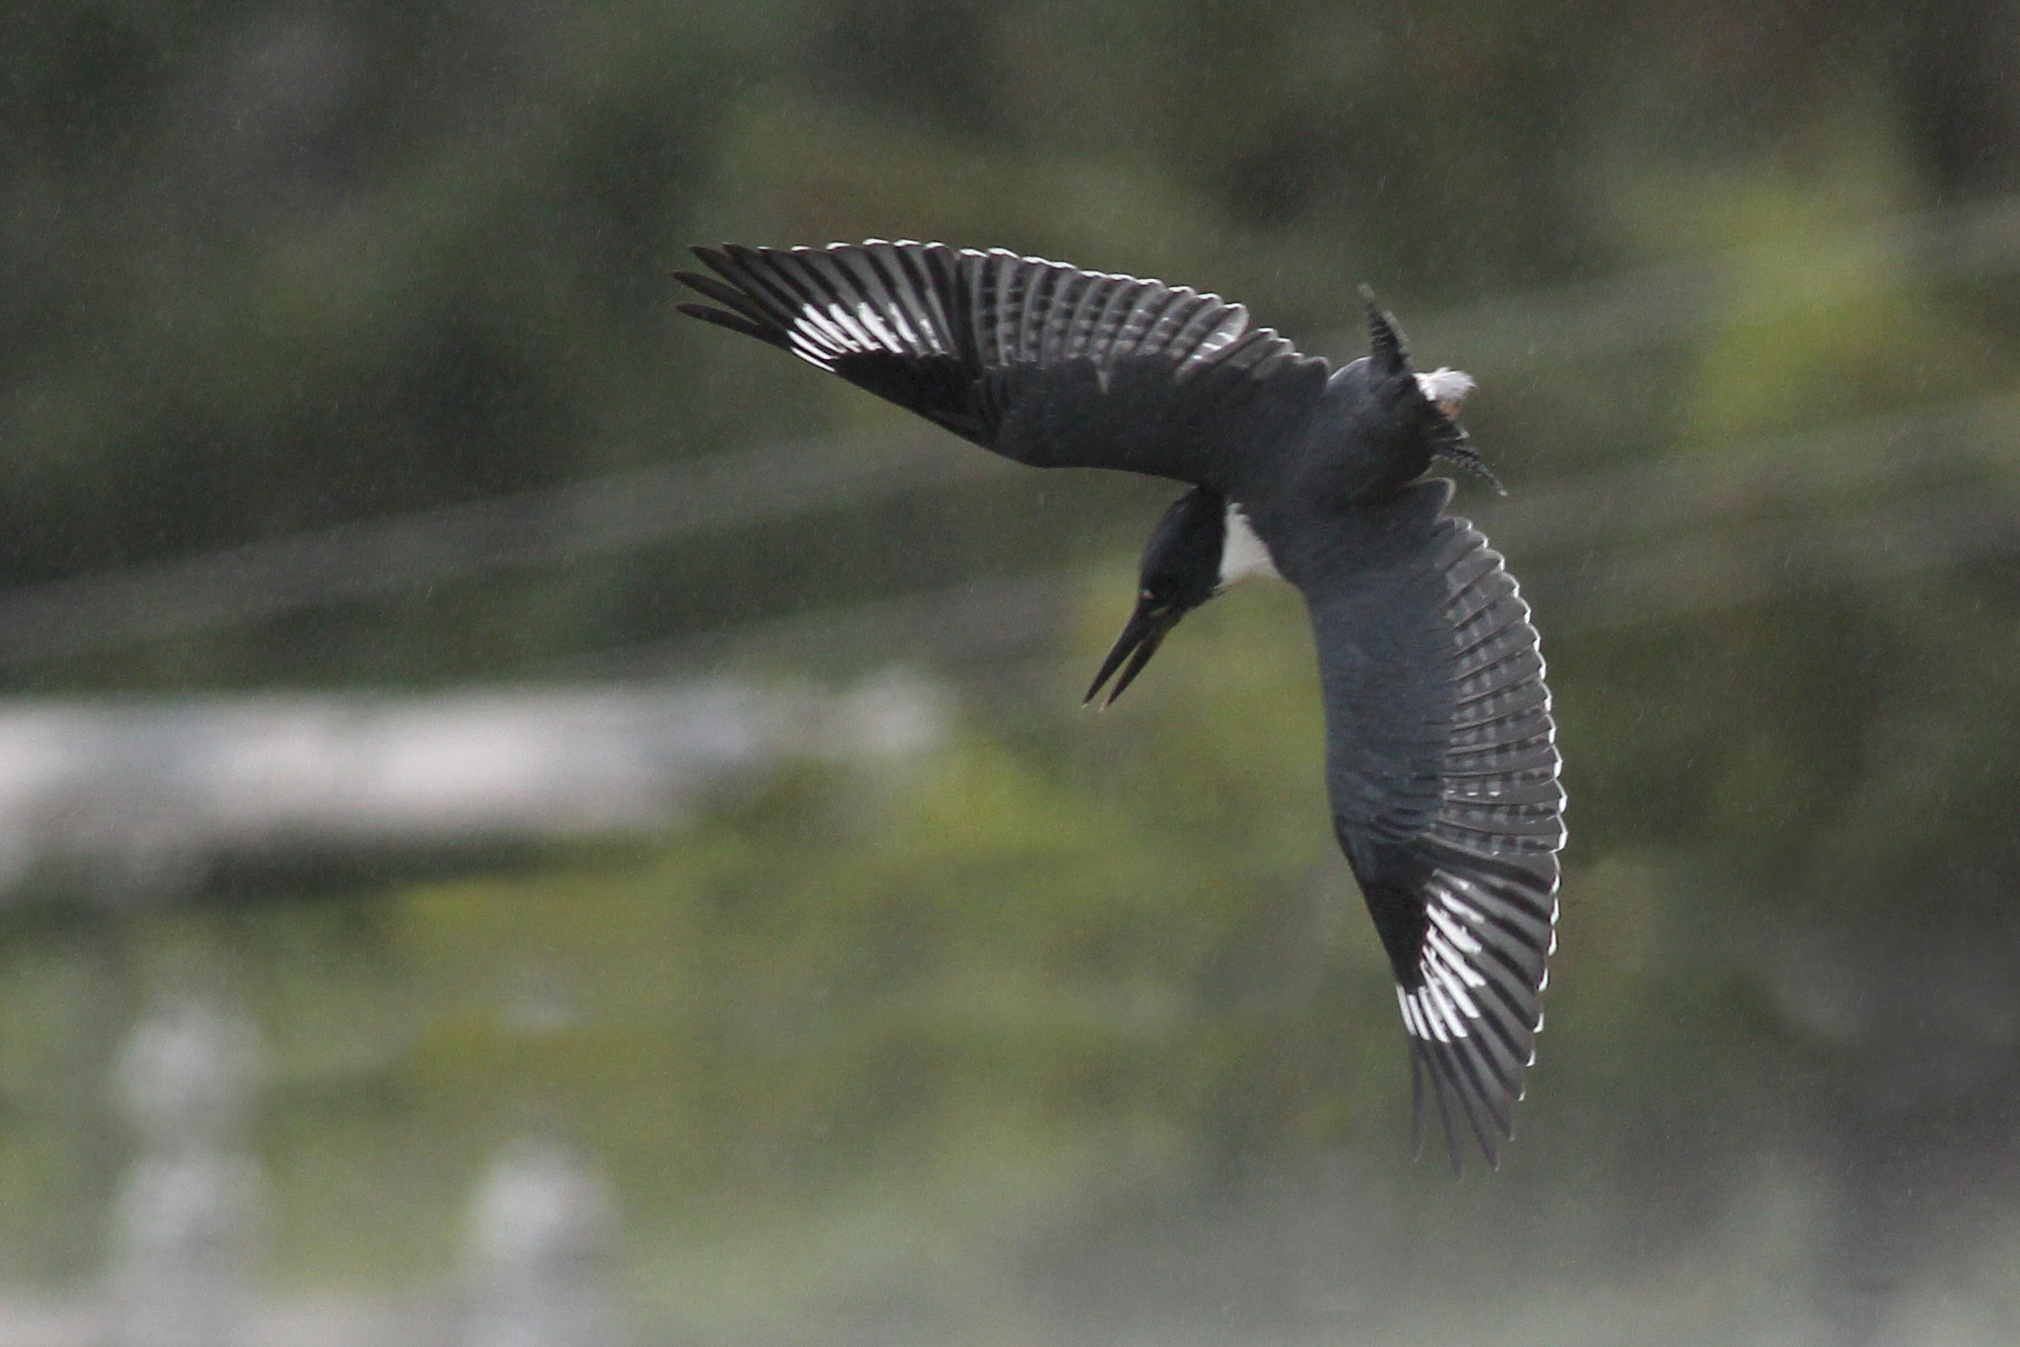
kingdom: Animalia
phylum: Chordata
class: Aves
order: Coraciiformes
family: Alcedinidae
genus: Megaceryle
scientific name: Megaceryle alcyon
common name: Belted kingfisher
